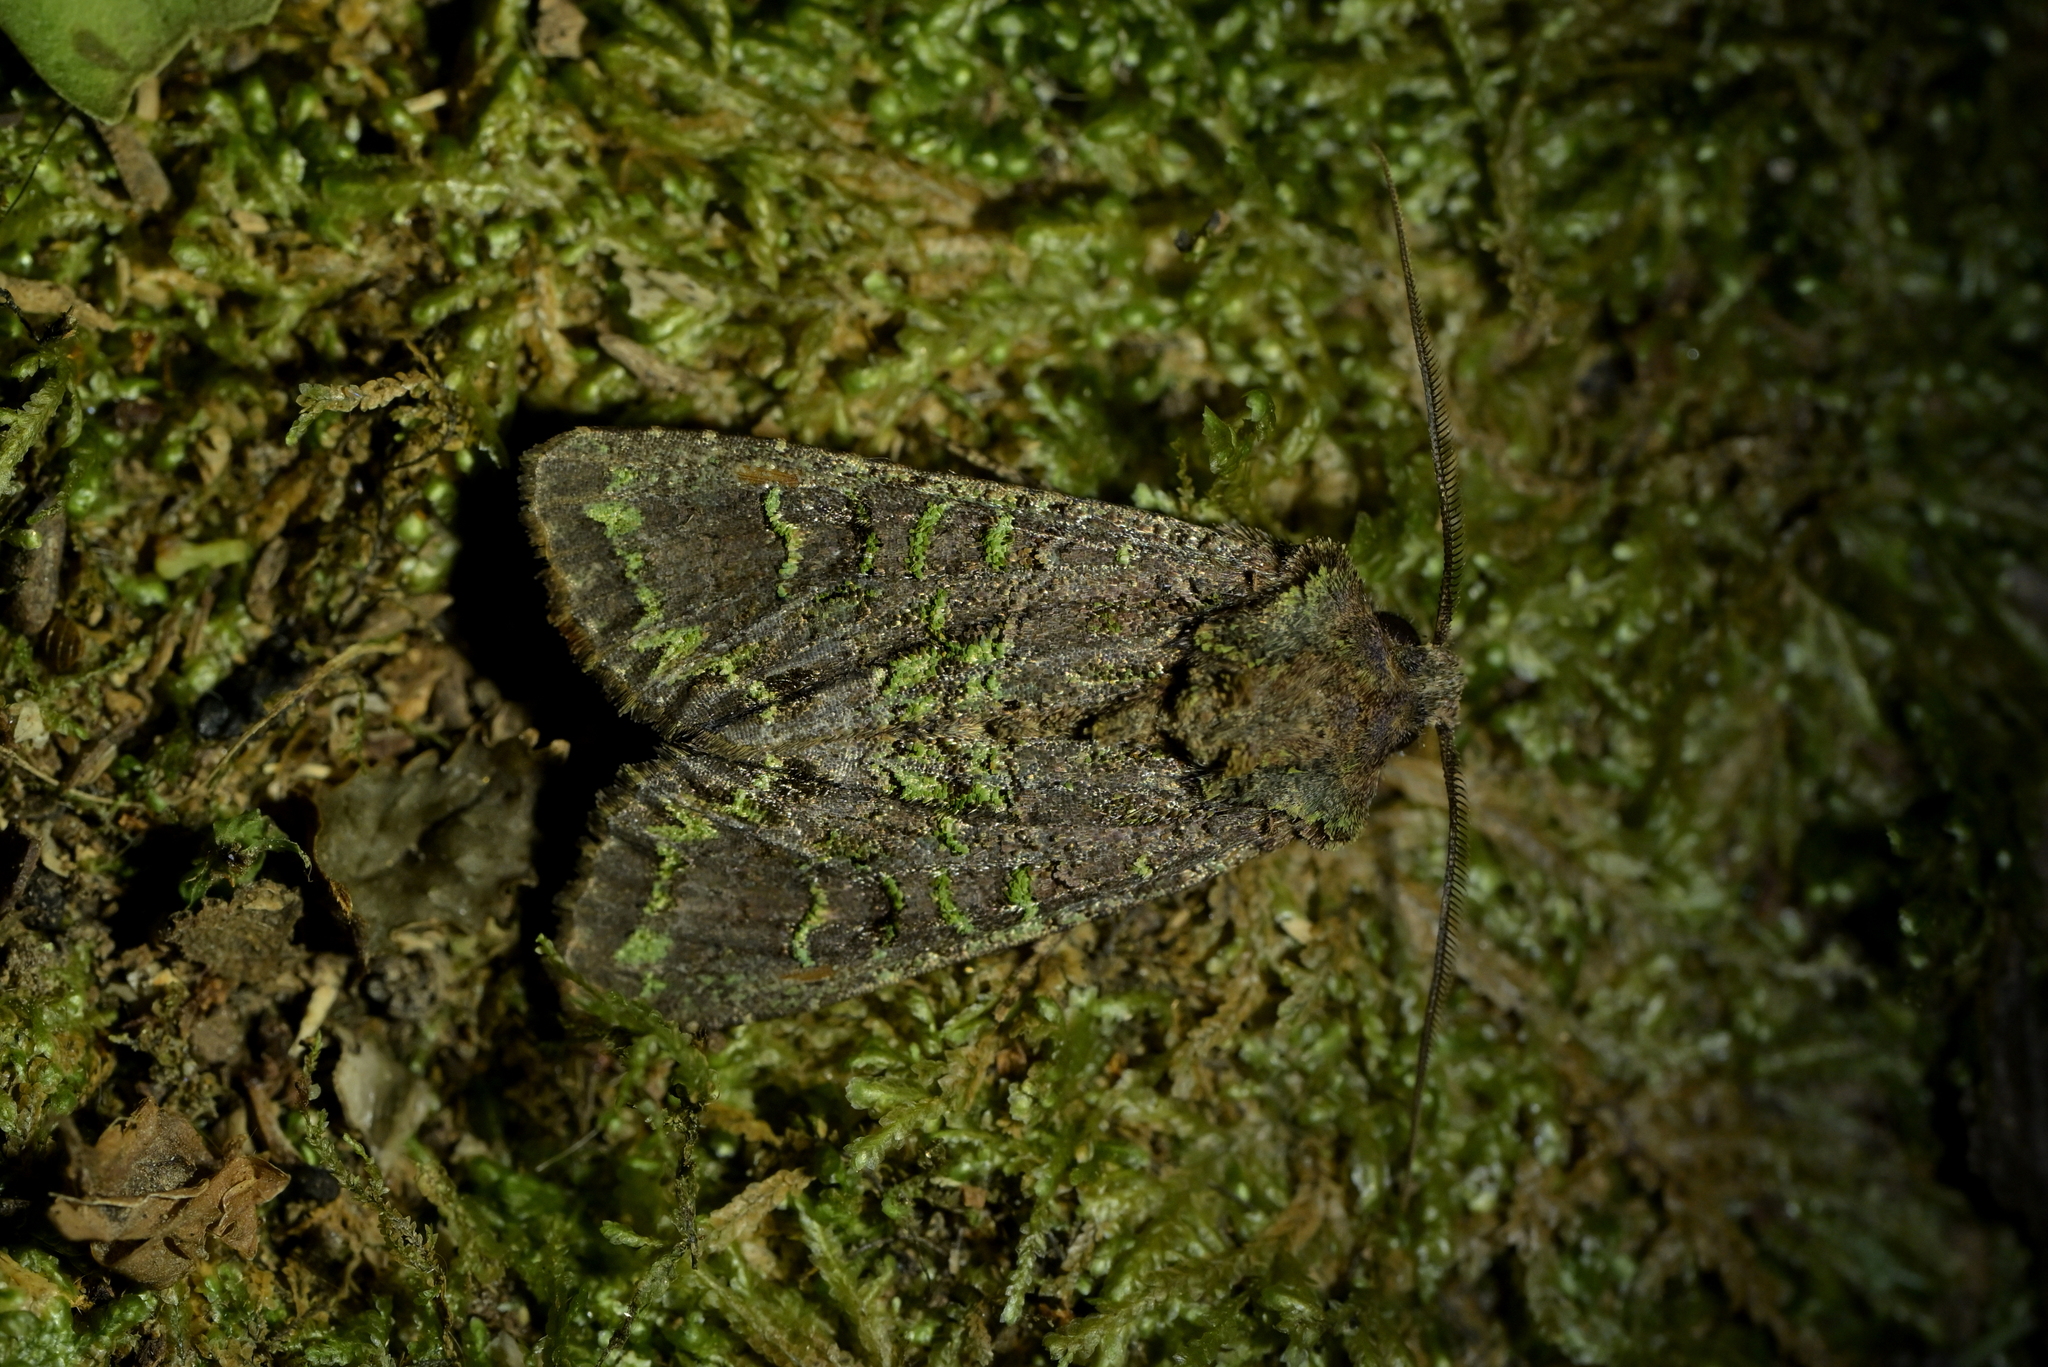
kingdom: Animalia
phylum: Arthropoda
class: Insecta
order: Lepidoptera
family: Noctuidae
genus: Ichneutica
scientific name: Ichneutica
